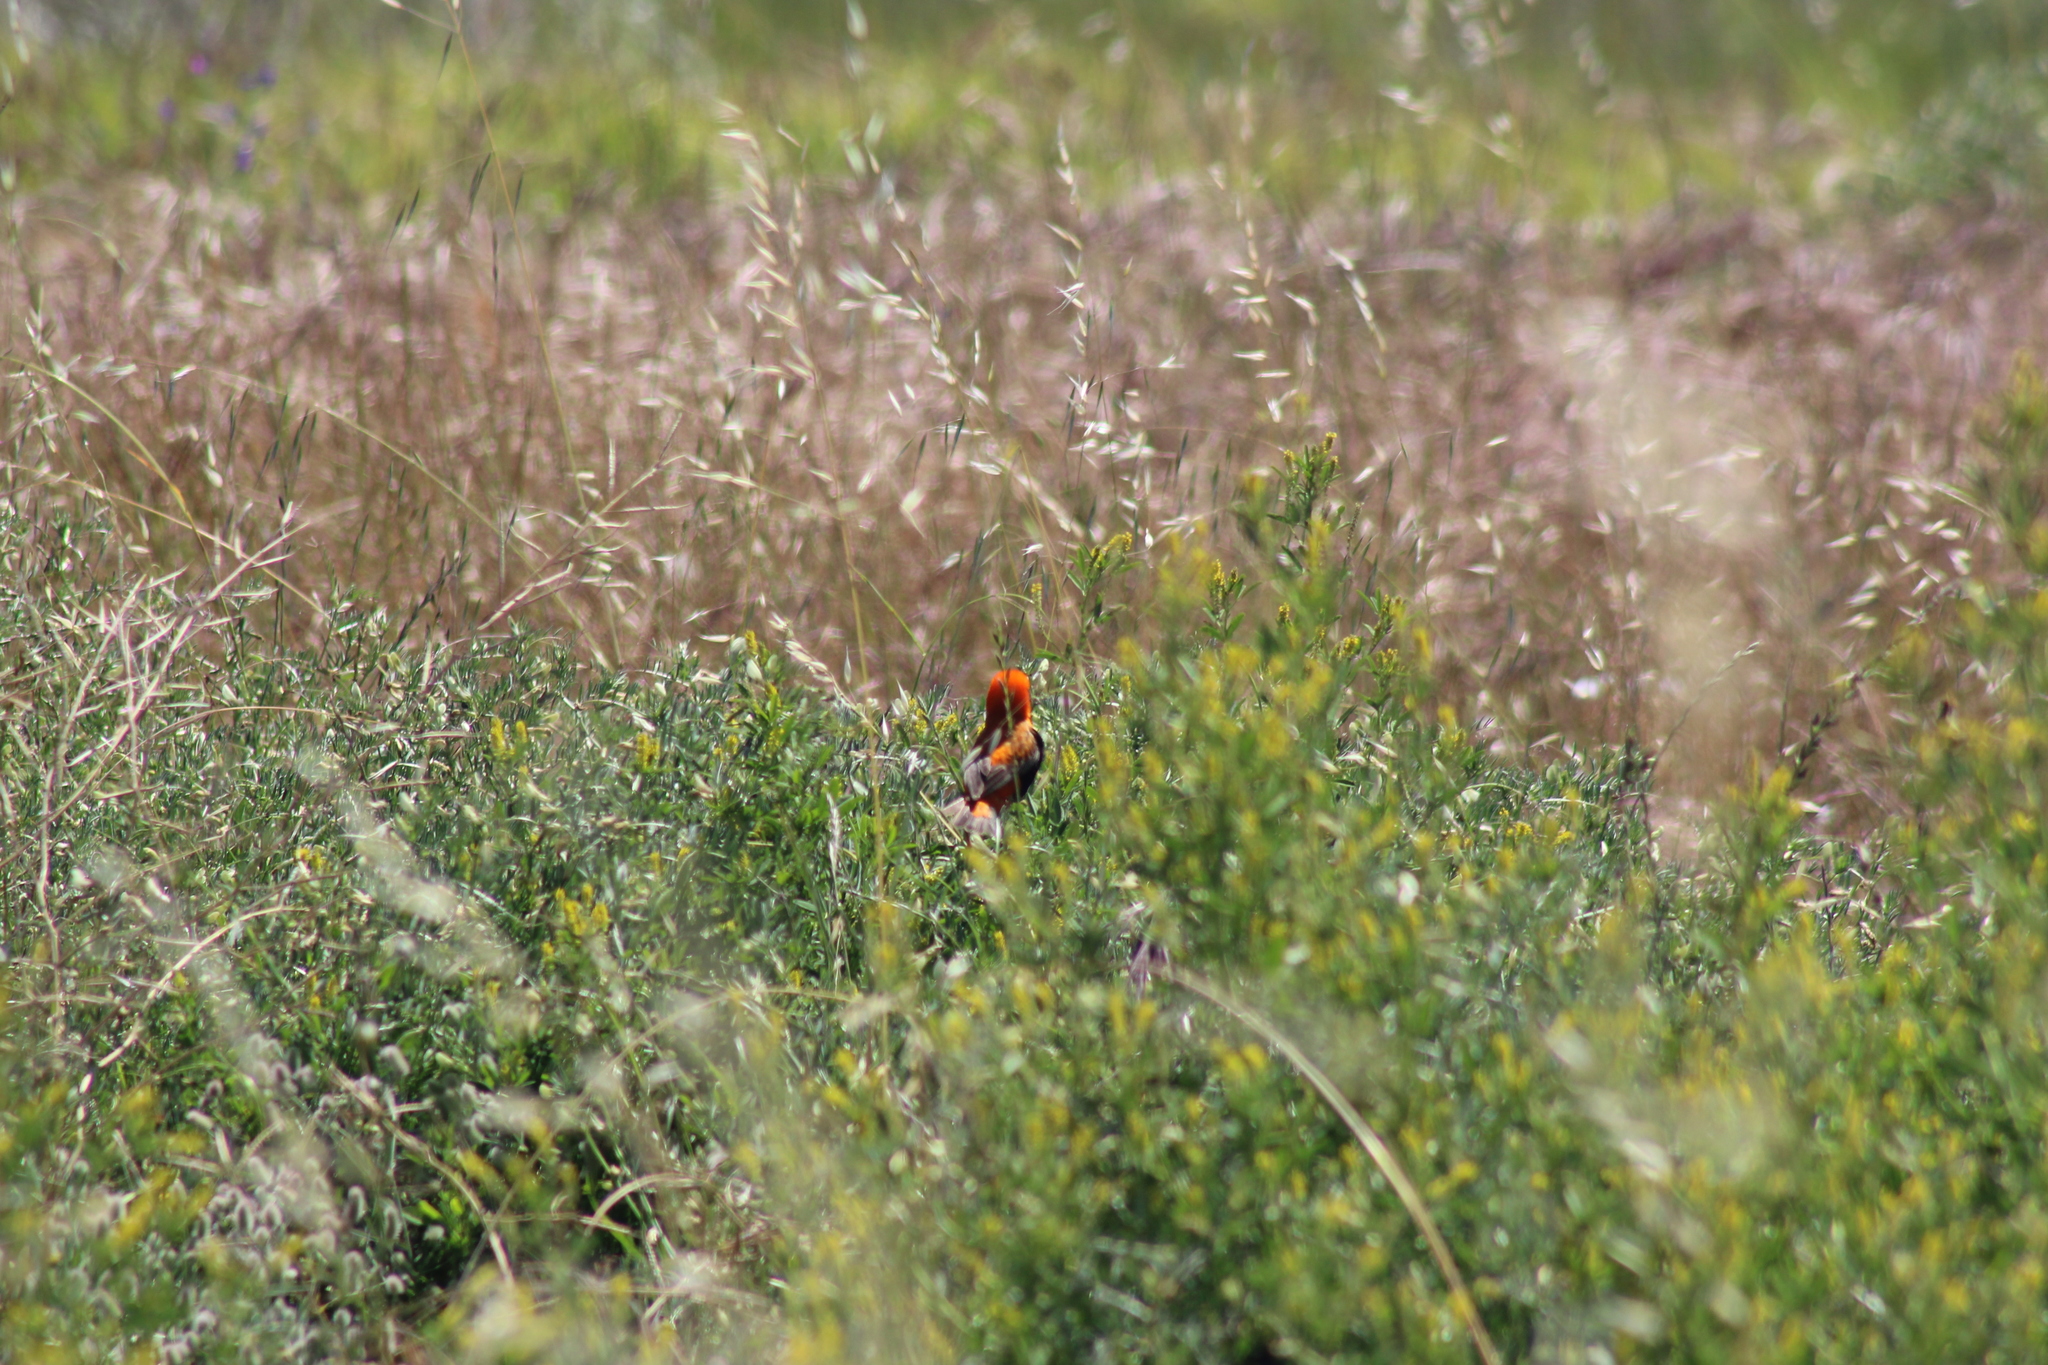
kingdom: Animalia
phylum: Chordata
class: Aves
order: Passeriformes
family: Ploceidae
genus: Euplectes
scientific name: Euplectes orix
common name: Southern red bishop
